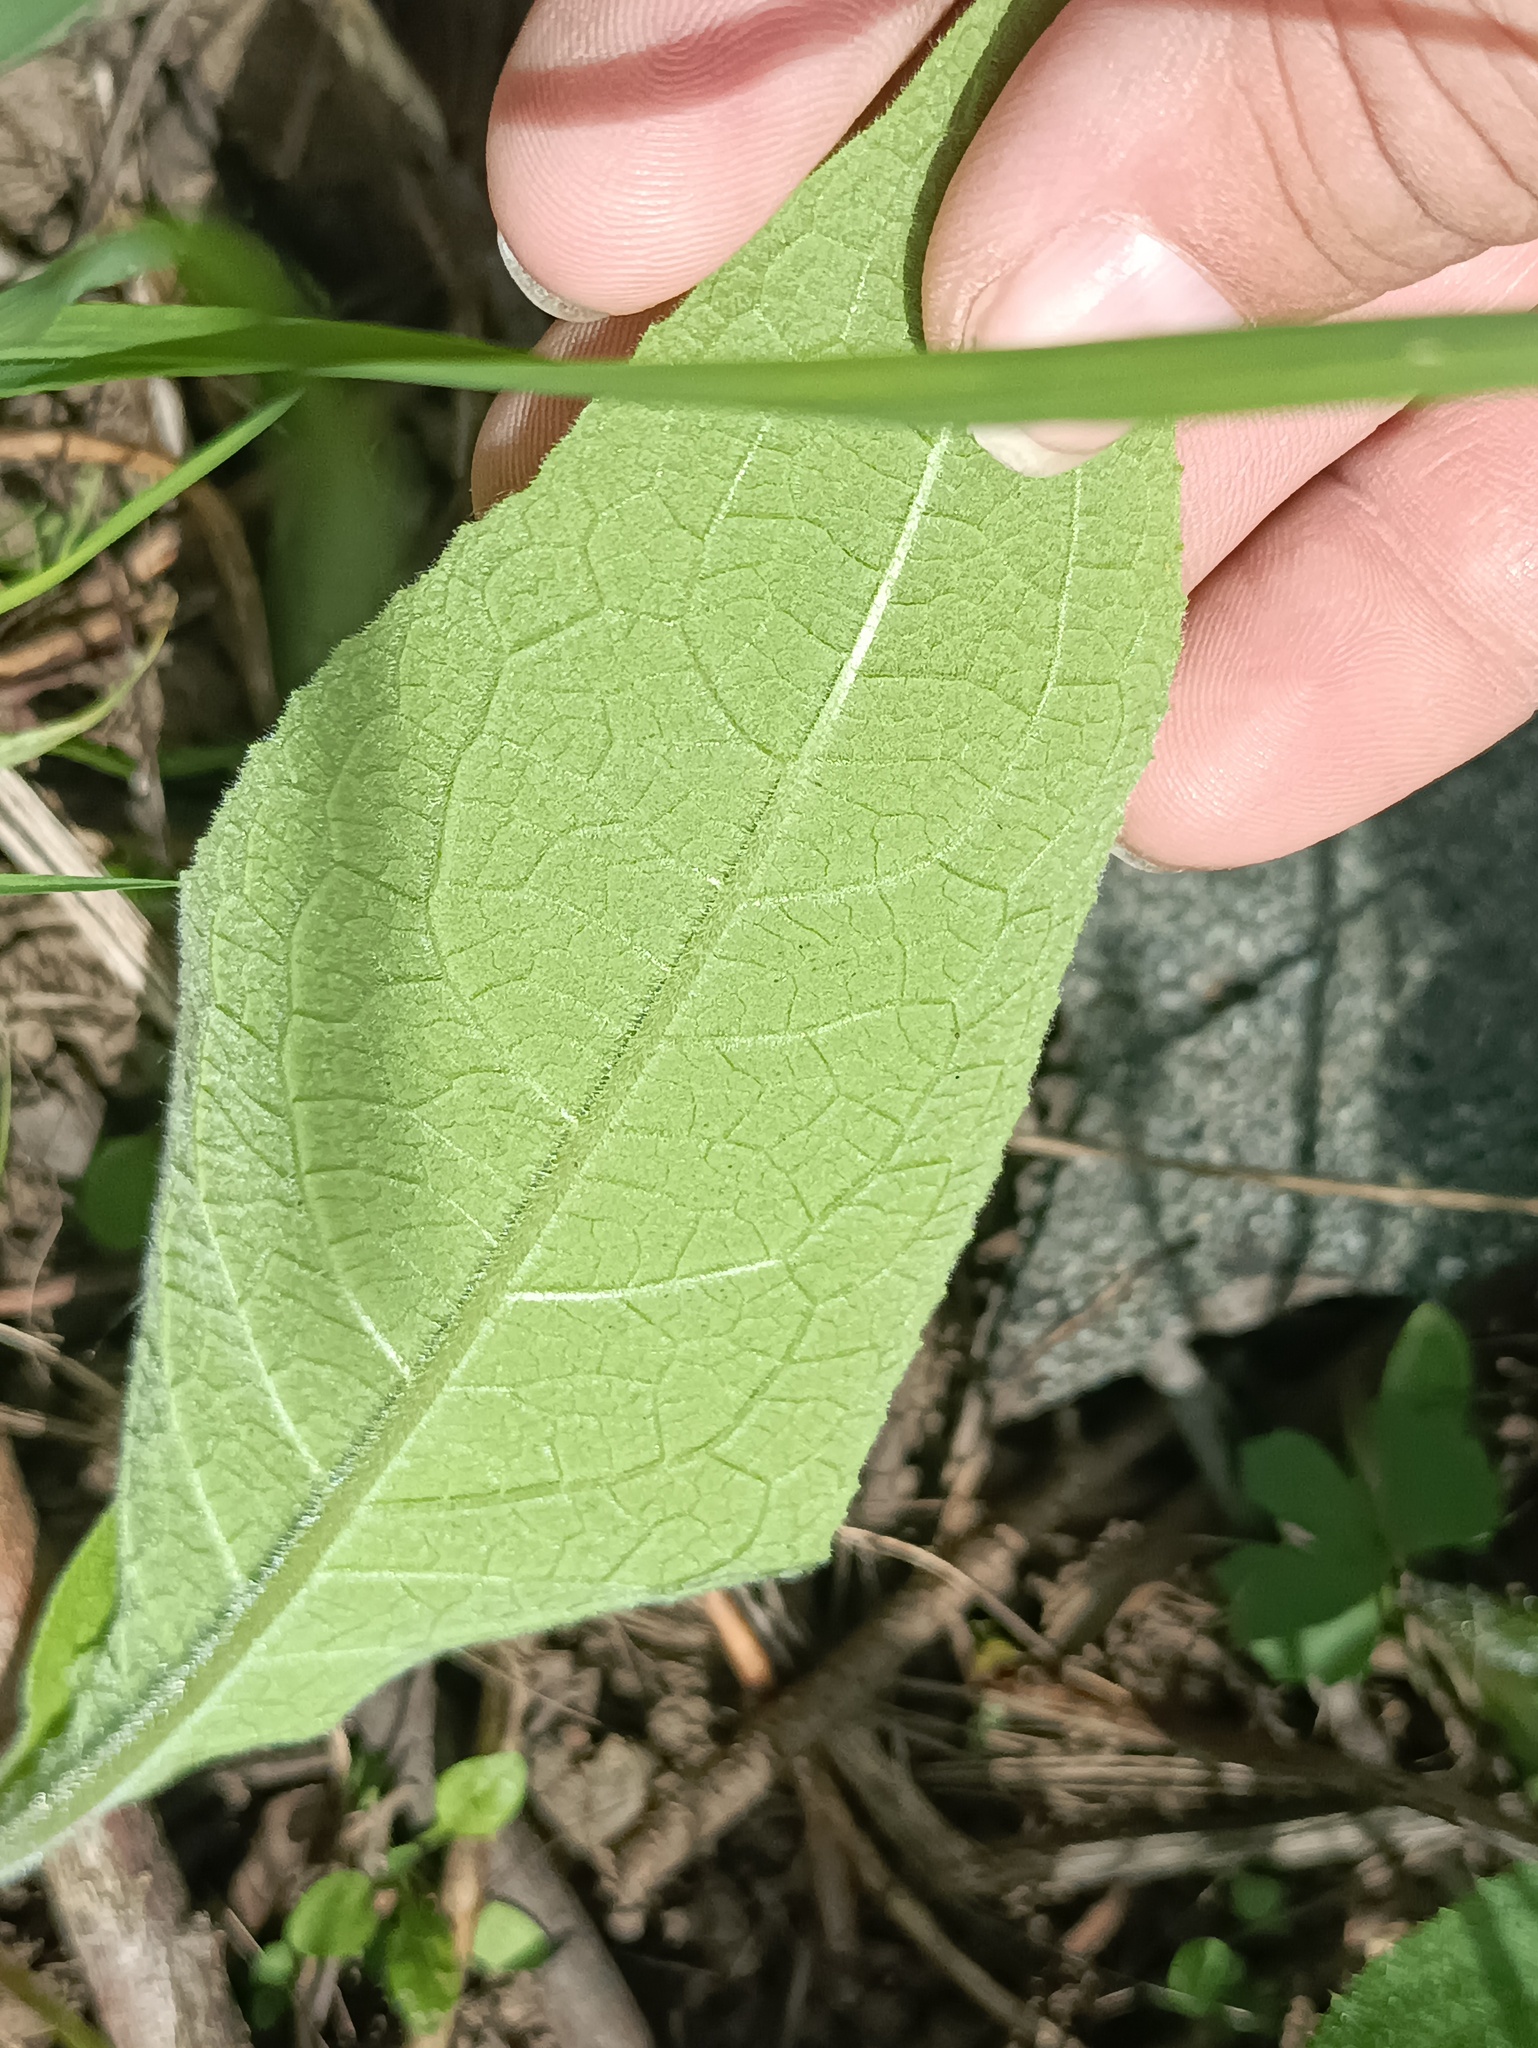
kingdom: Plantae
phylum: Tracheophyta
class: Magnoliopsida
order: Asterales
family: Asteraceae
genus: Inula
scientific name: Inula helenium
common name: Elecampane
